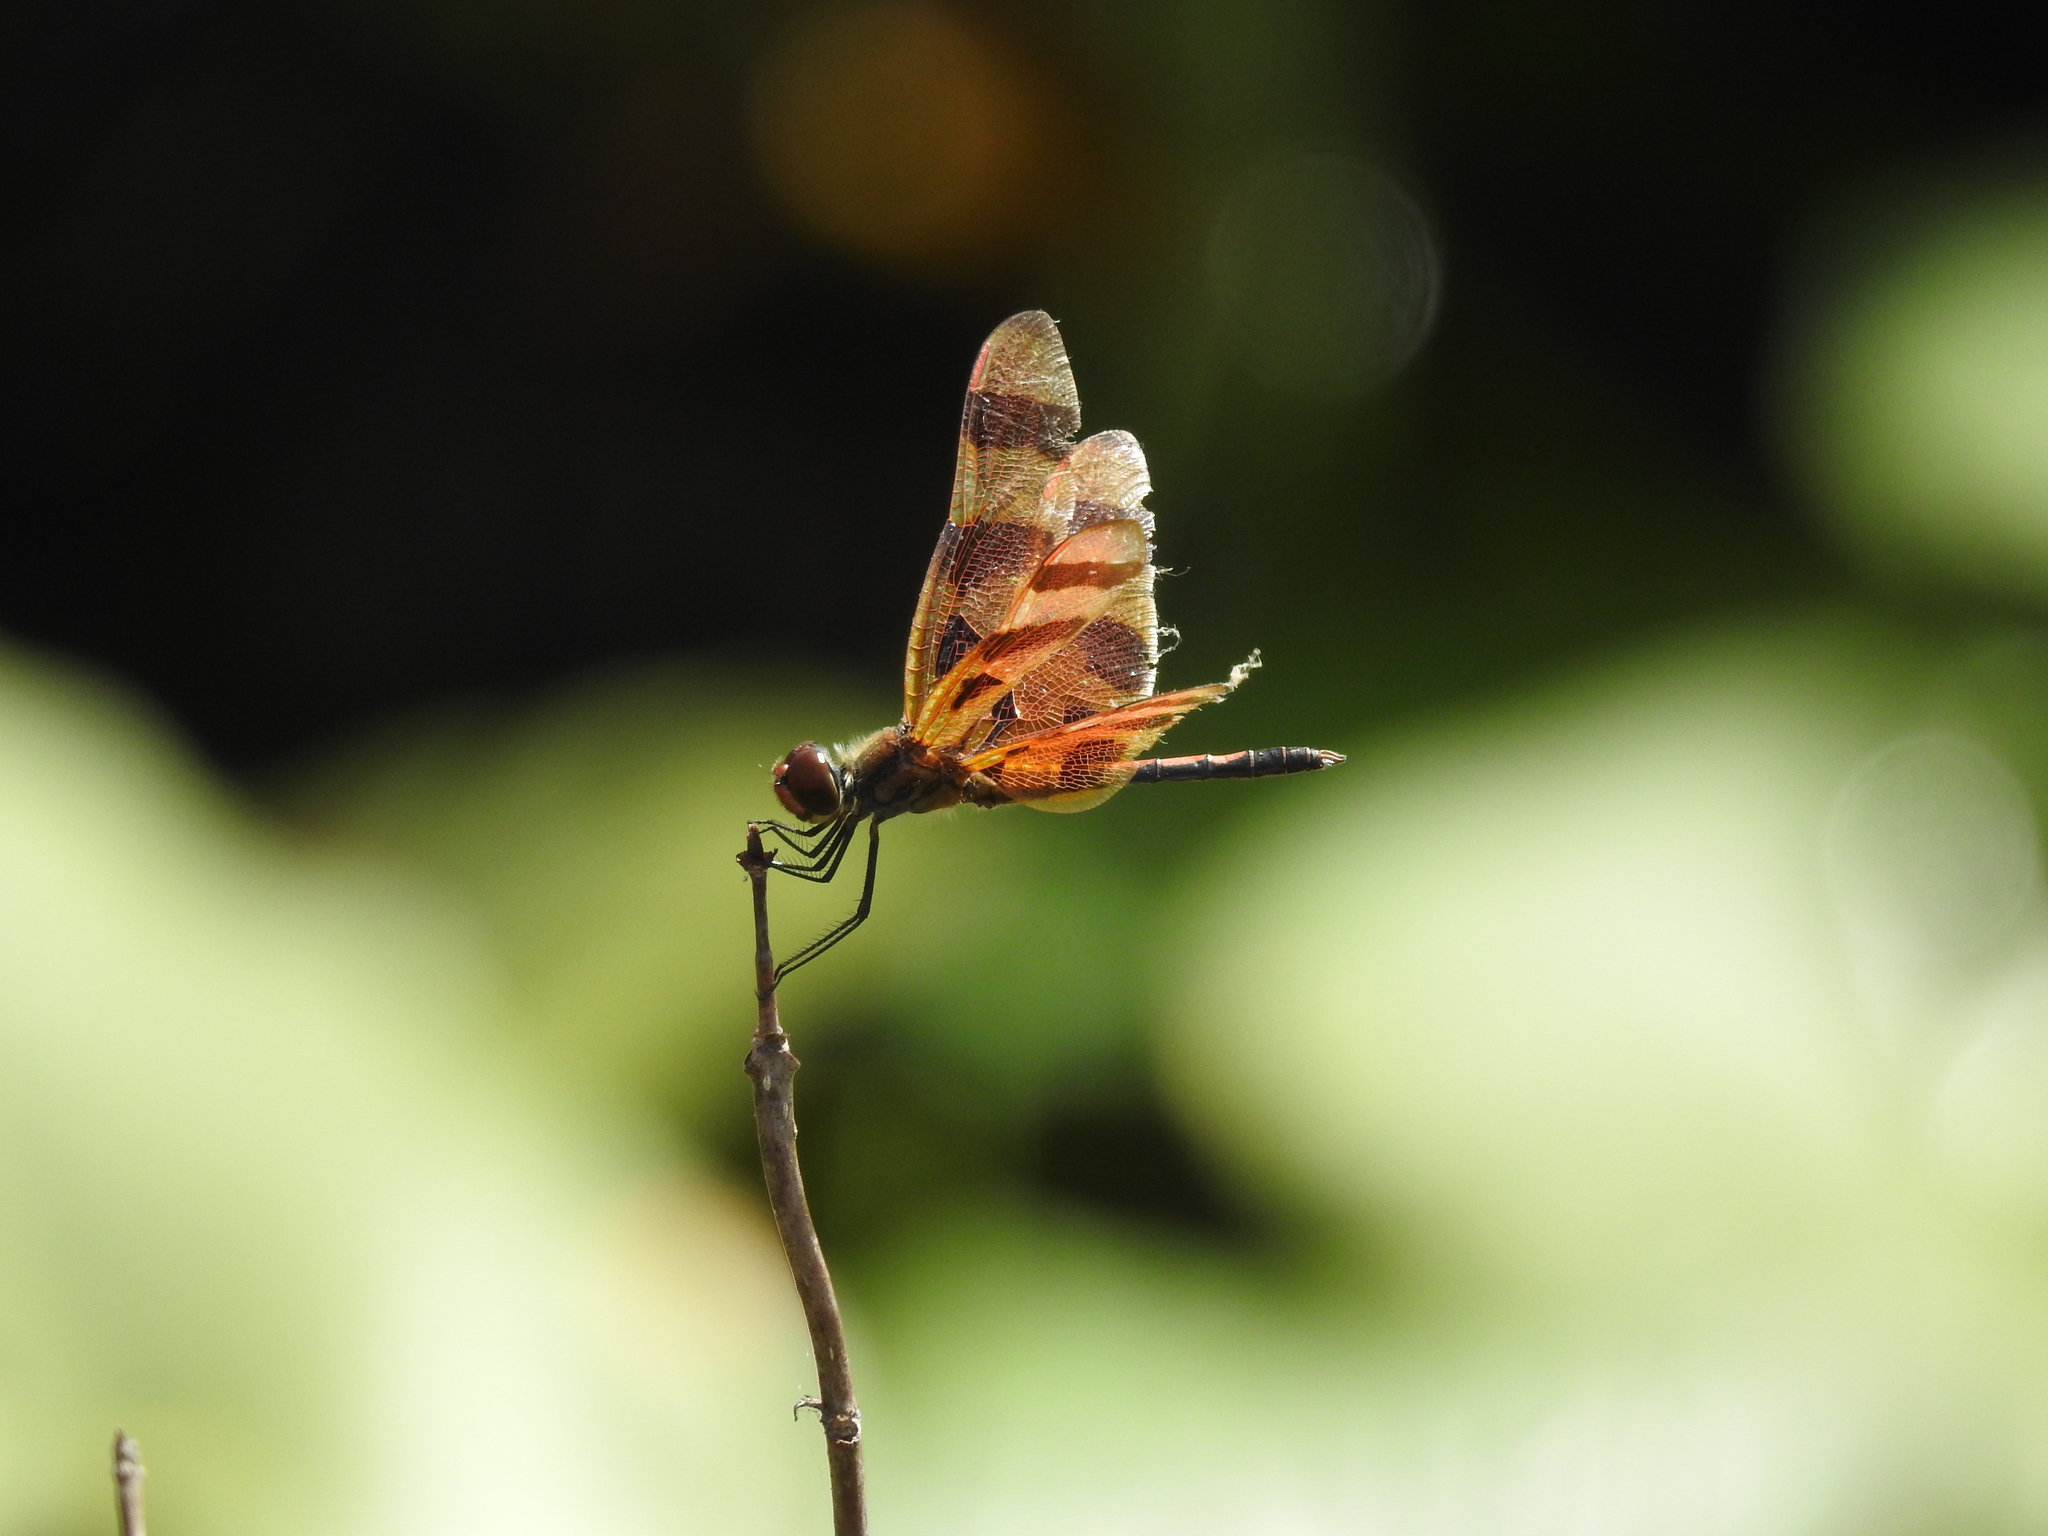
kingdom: Animalia
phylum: Arthropoda
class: Insecta
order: Odonata
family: Libellulidae
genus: Celithemis
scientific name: Celithemis eponina
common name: Halloween pennant
